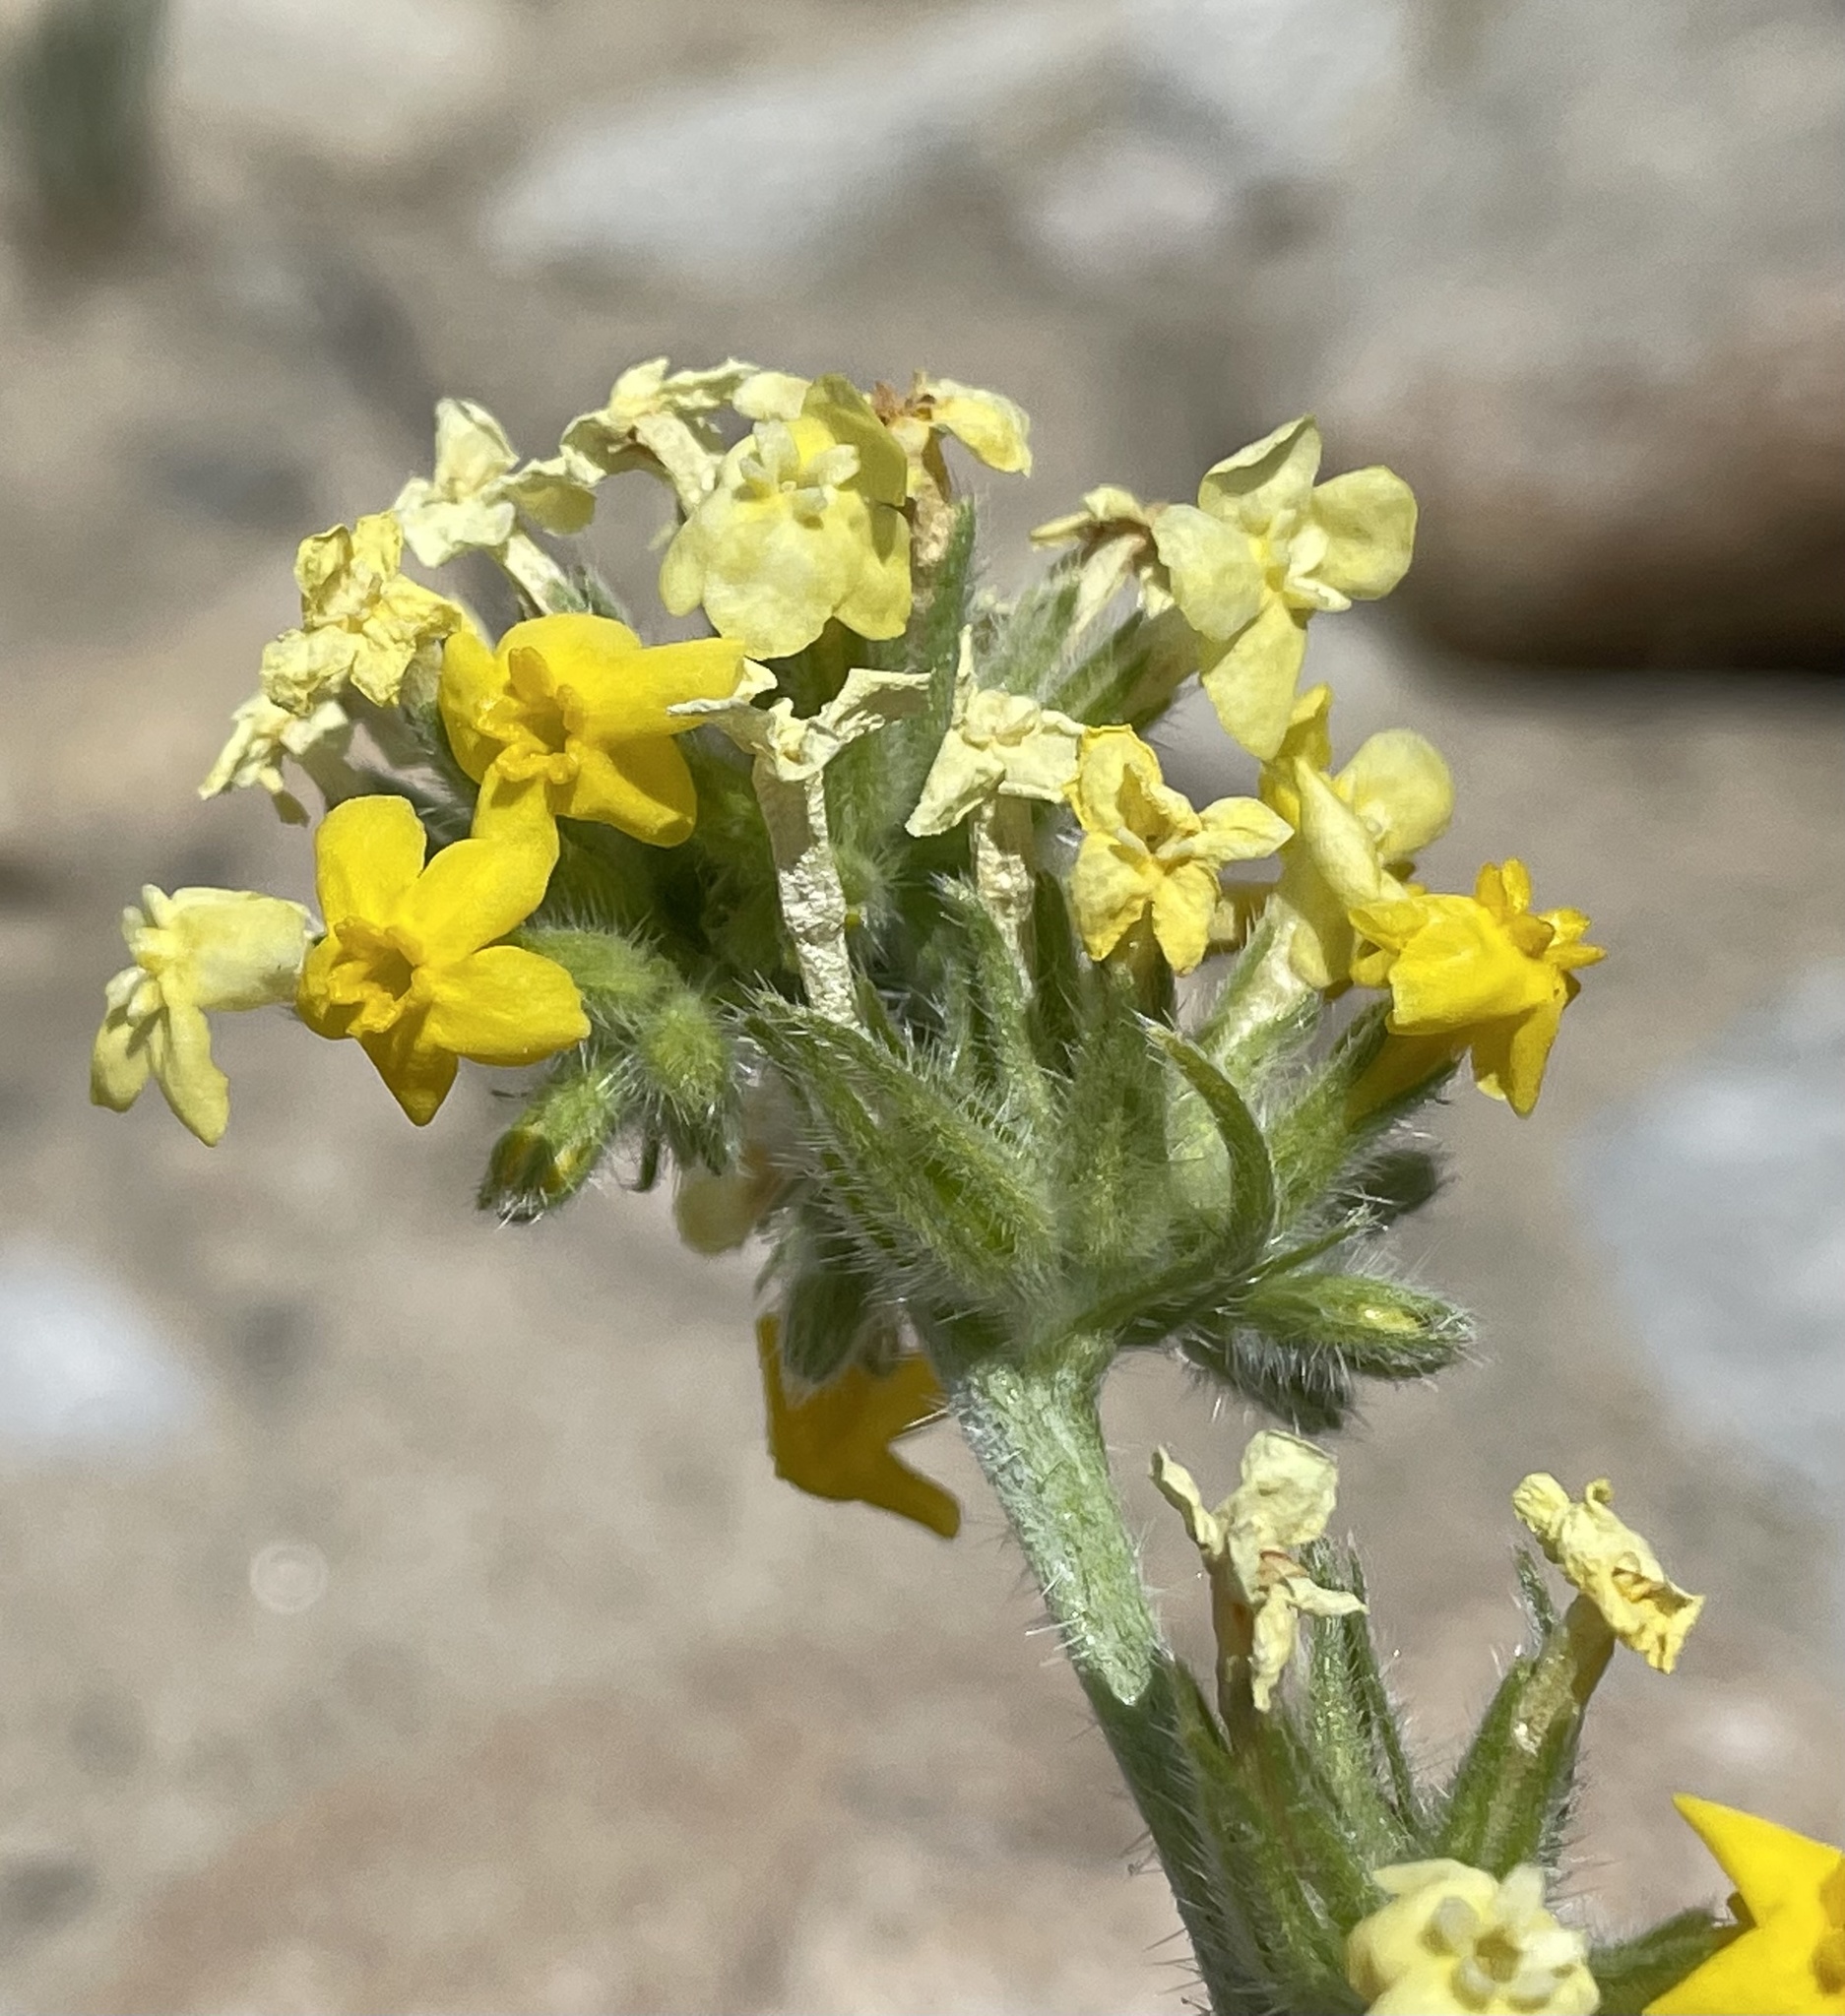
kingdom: Plantae
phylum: Tracheophyta
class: Magnoliopsida
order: Boraginales
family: Boraginaceae
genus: Oreocarya
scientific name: Oreocarya confertiflora
